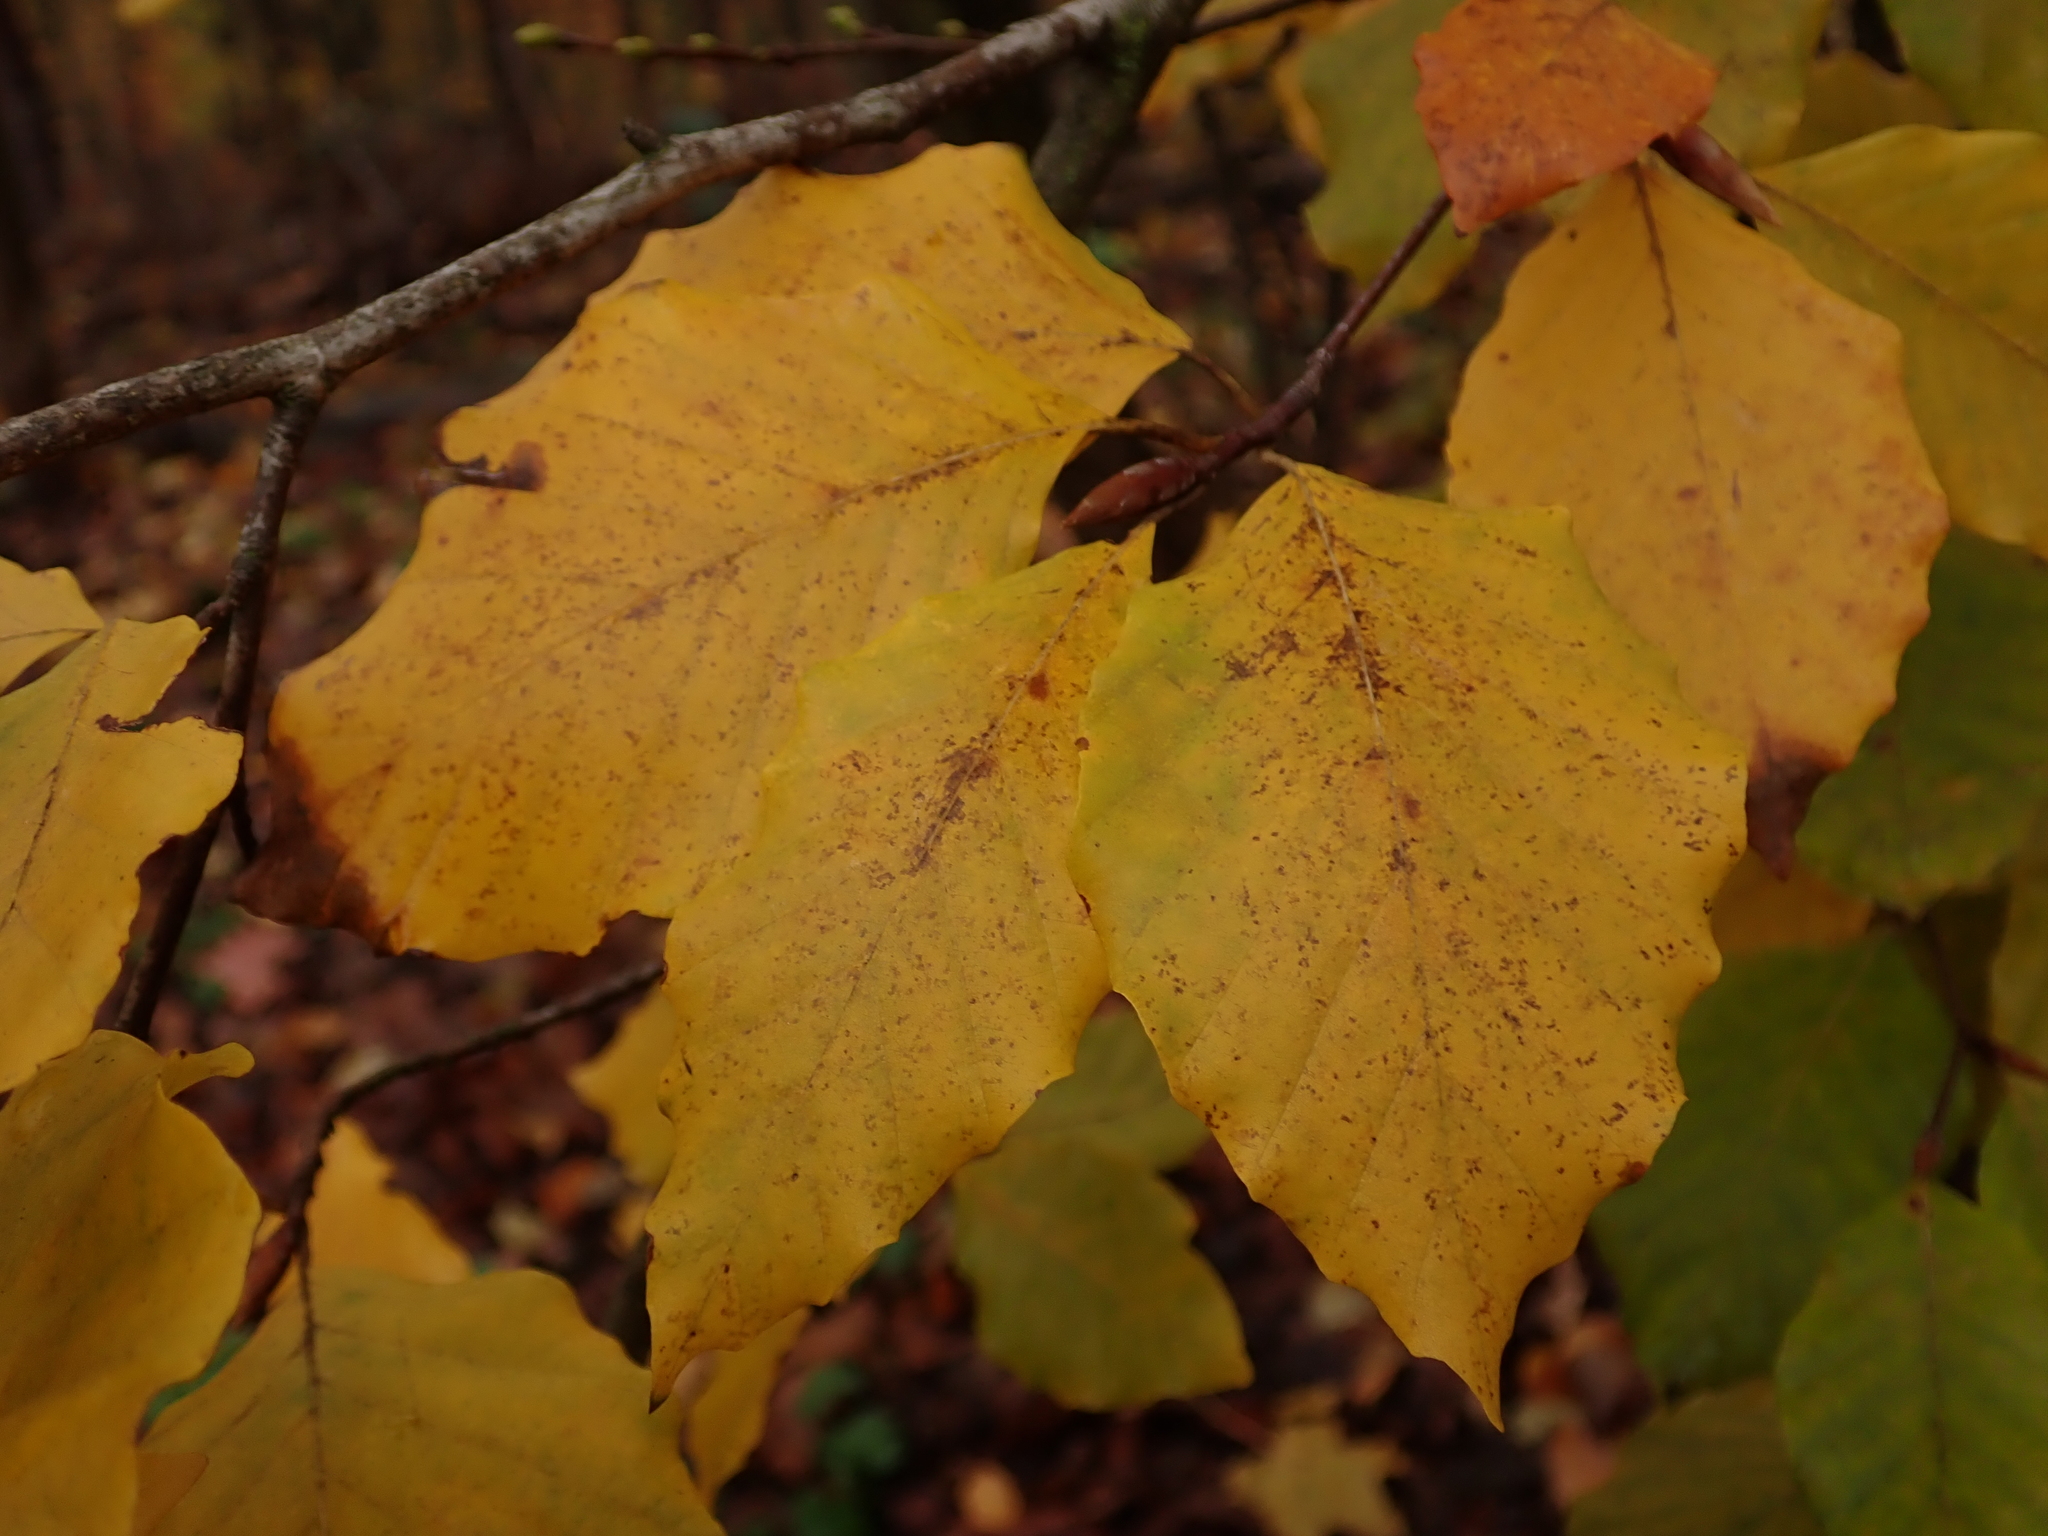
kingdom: Plantae
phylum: Tracheophyta
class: Magnoliopsida
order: Fagales
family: Fagaceae
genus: Fagus
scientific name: Fagus sylvatica
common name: Beech
